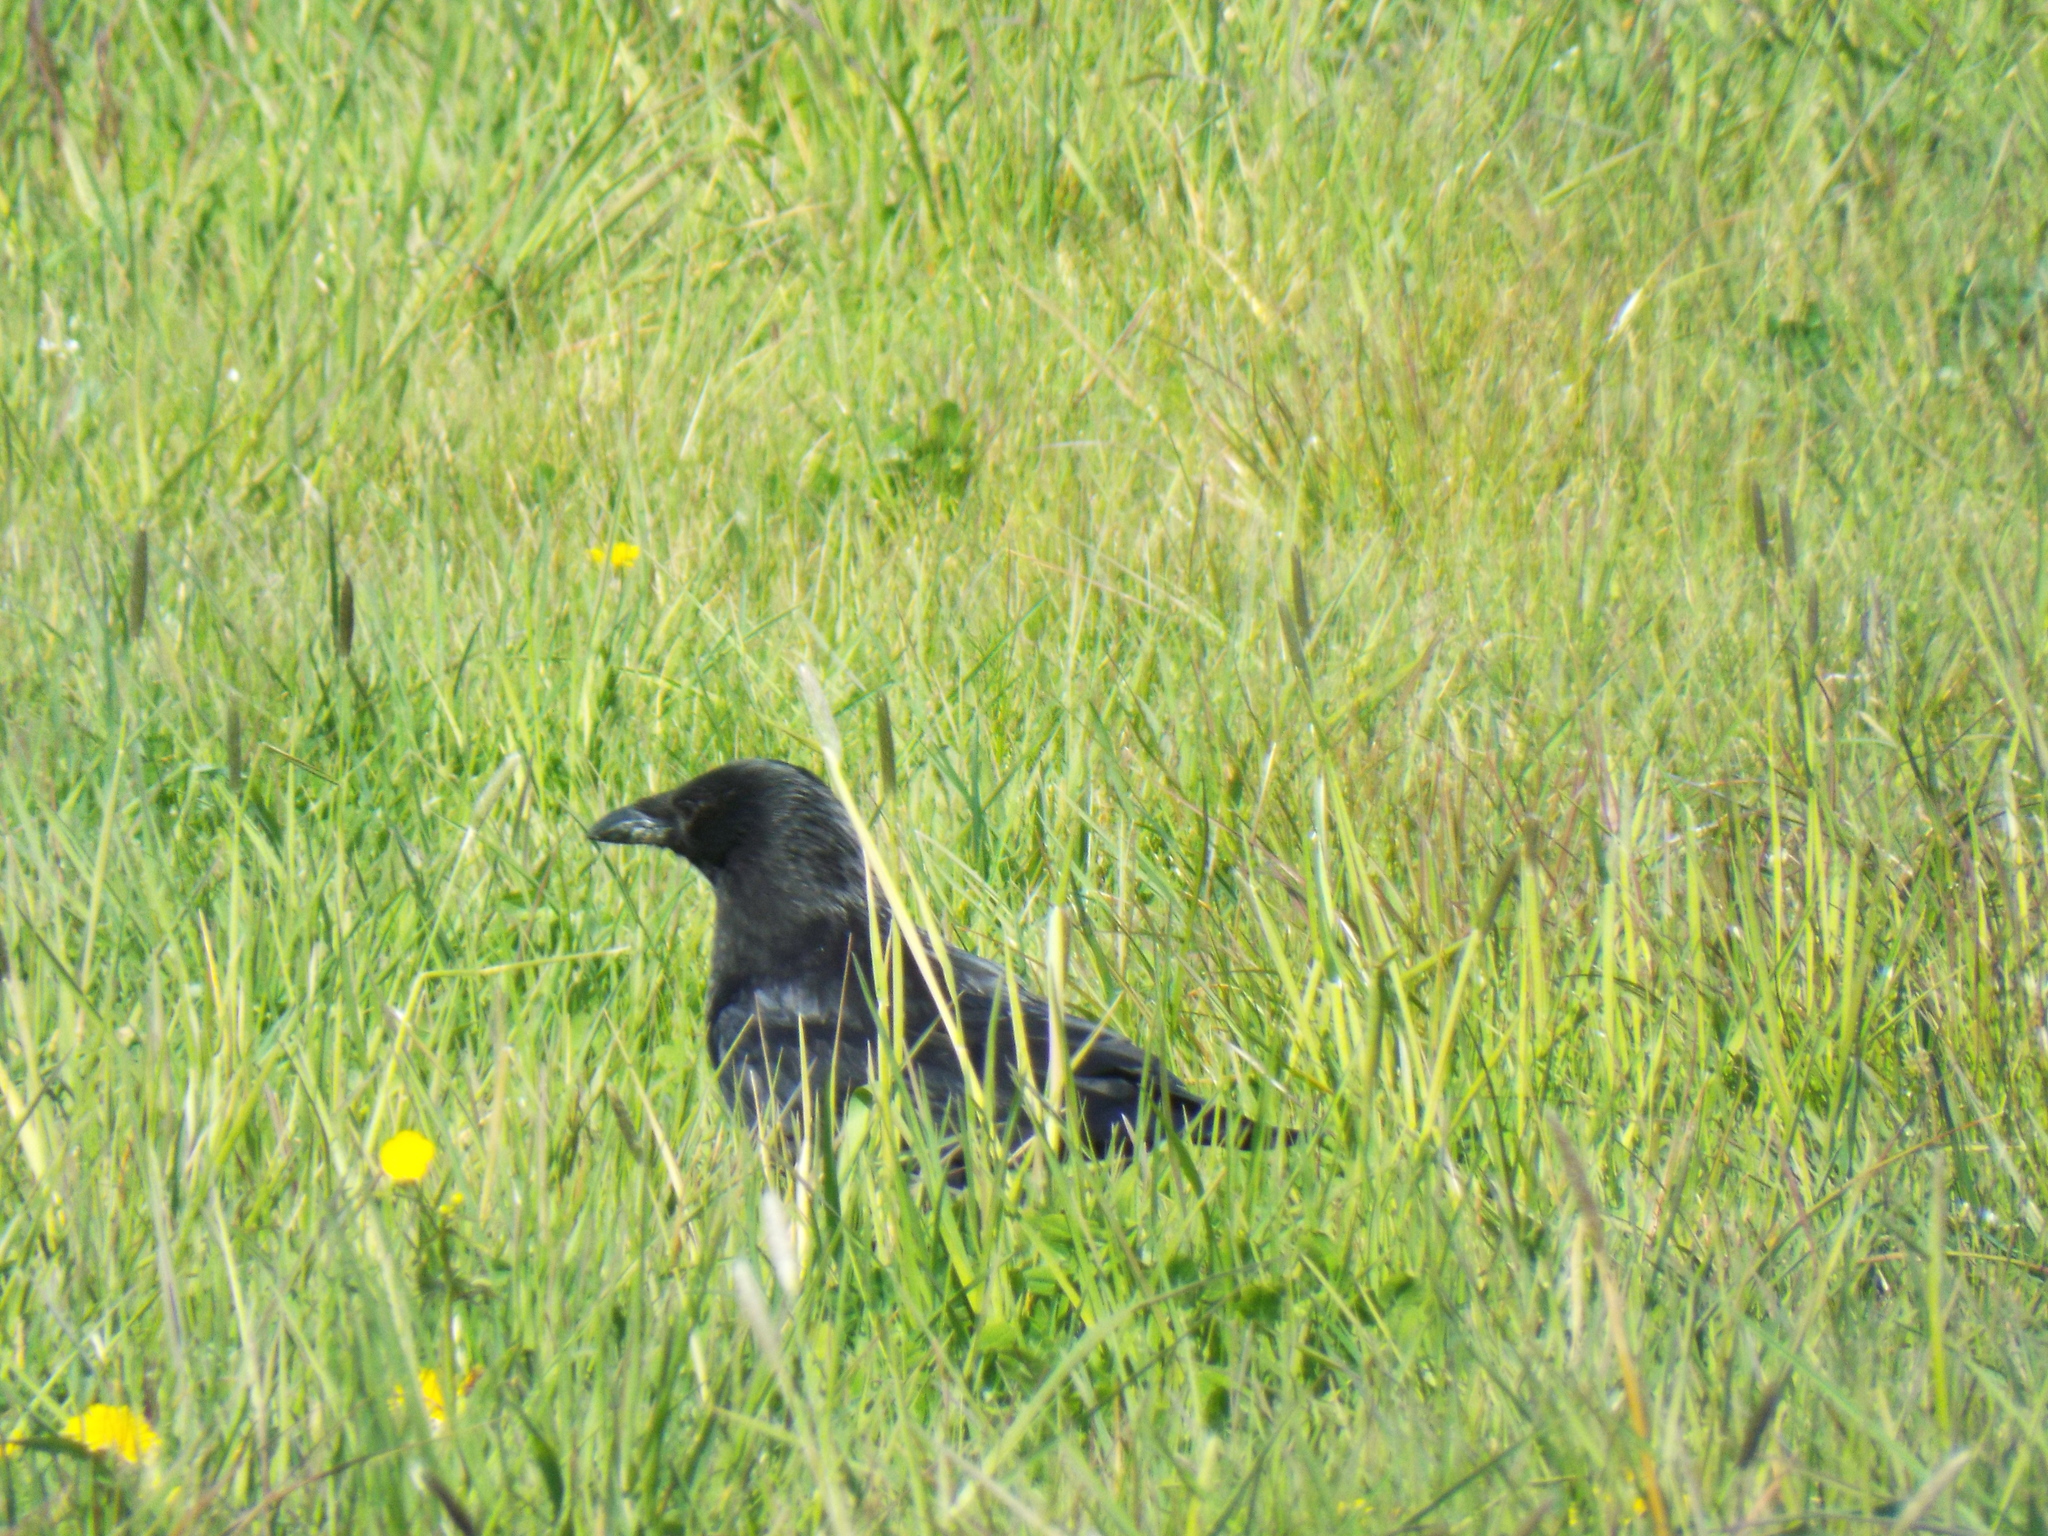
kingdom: Animalia
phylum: Chordata
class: Aves
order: Passeriformes
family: Corvidae
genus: Corvus
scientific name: Corvus corone
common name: Carrion crow
